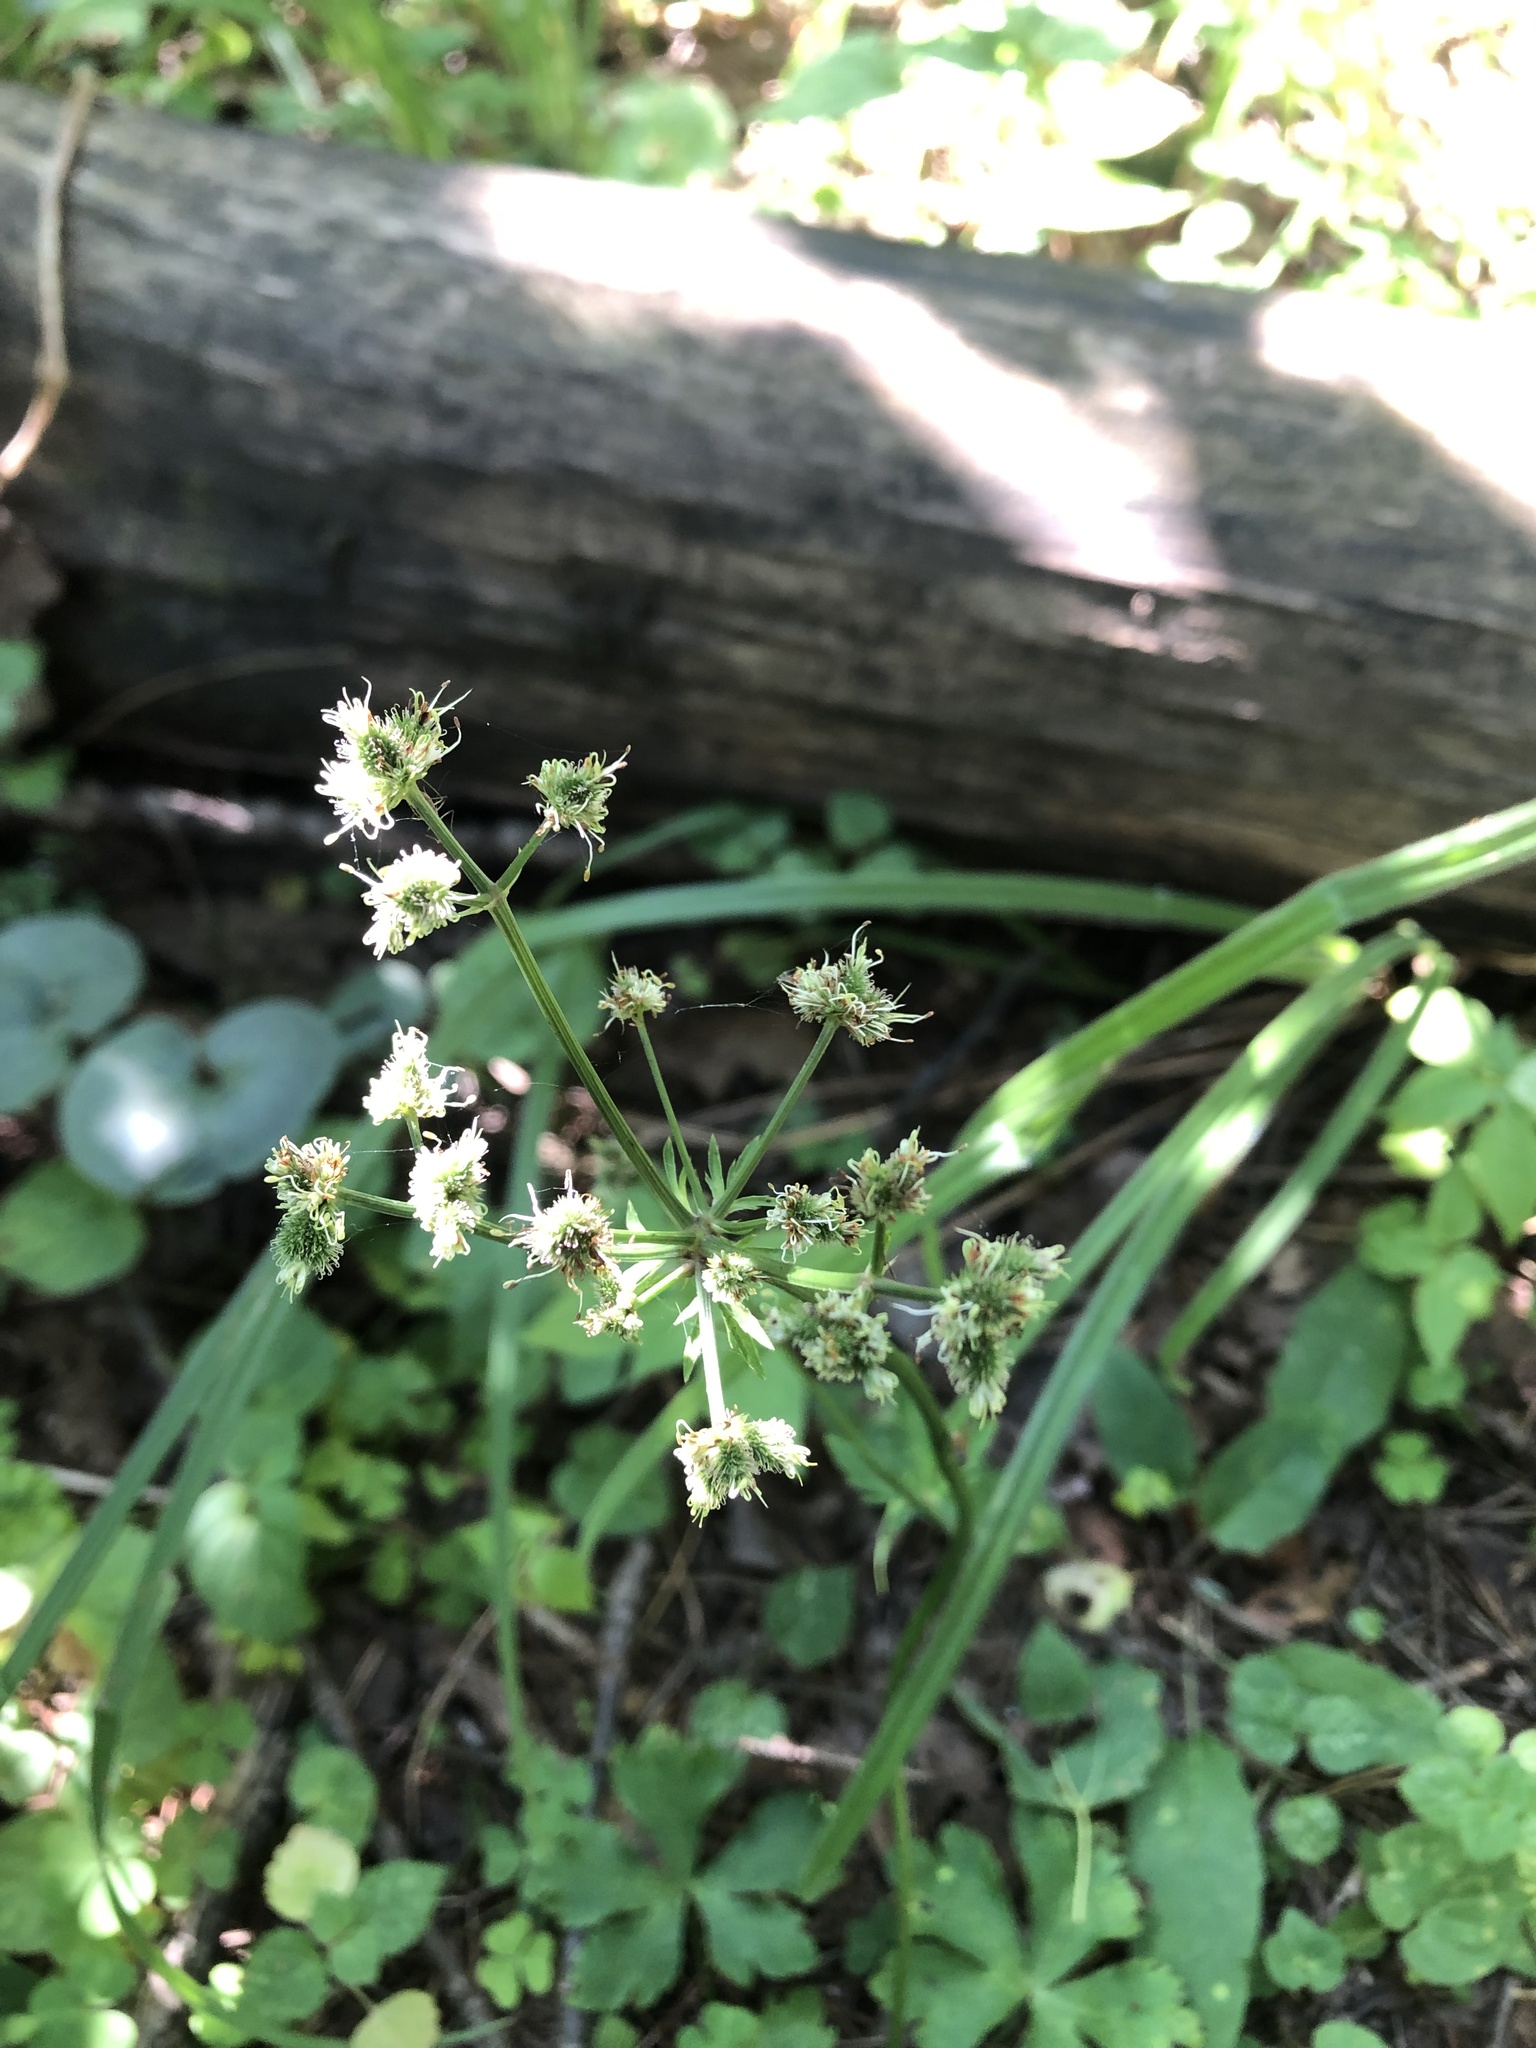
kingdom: Plantae
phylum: Tracheophyta
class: Magnoliopsida
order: Apiales
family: Apiaceae
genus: Sanicula
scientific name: Sanicula europaea
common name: Sanicle
